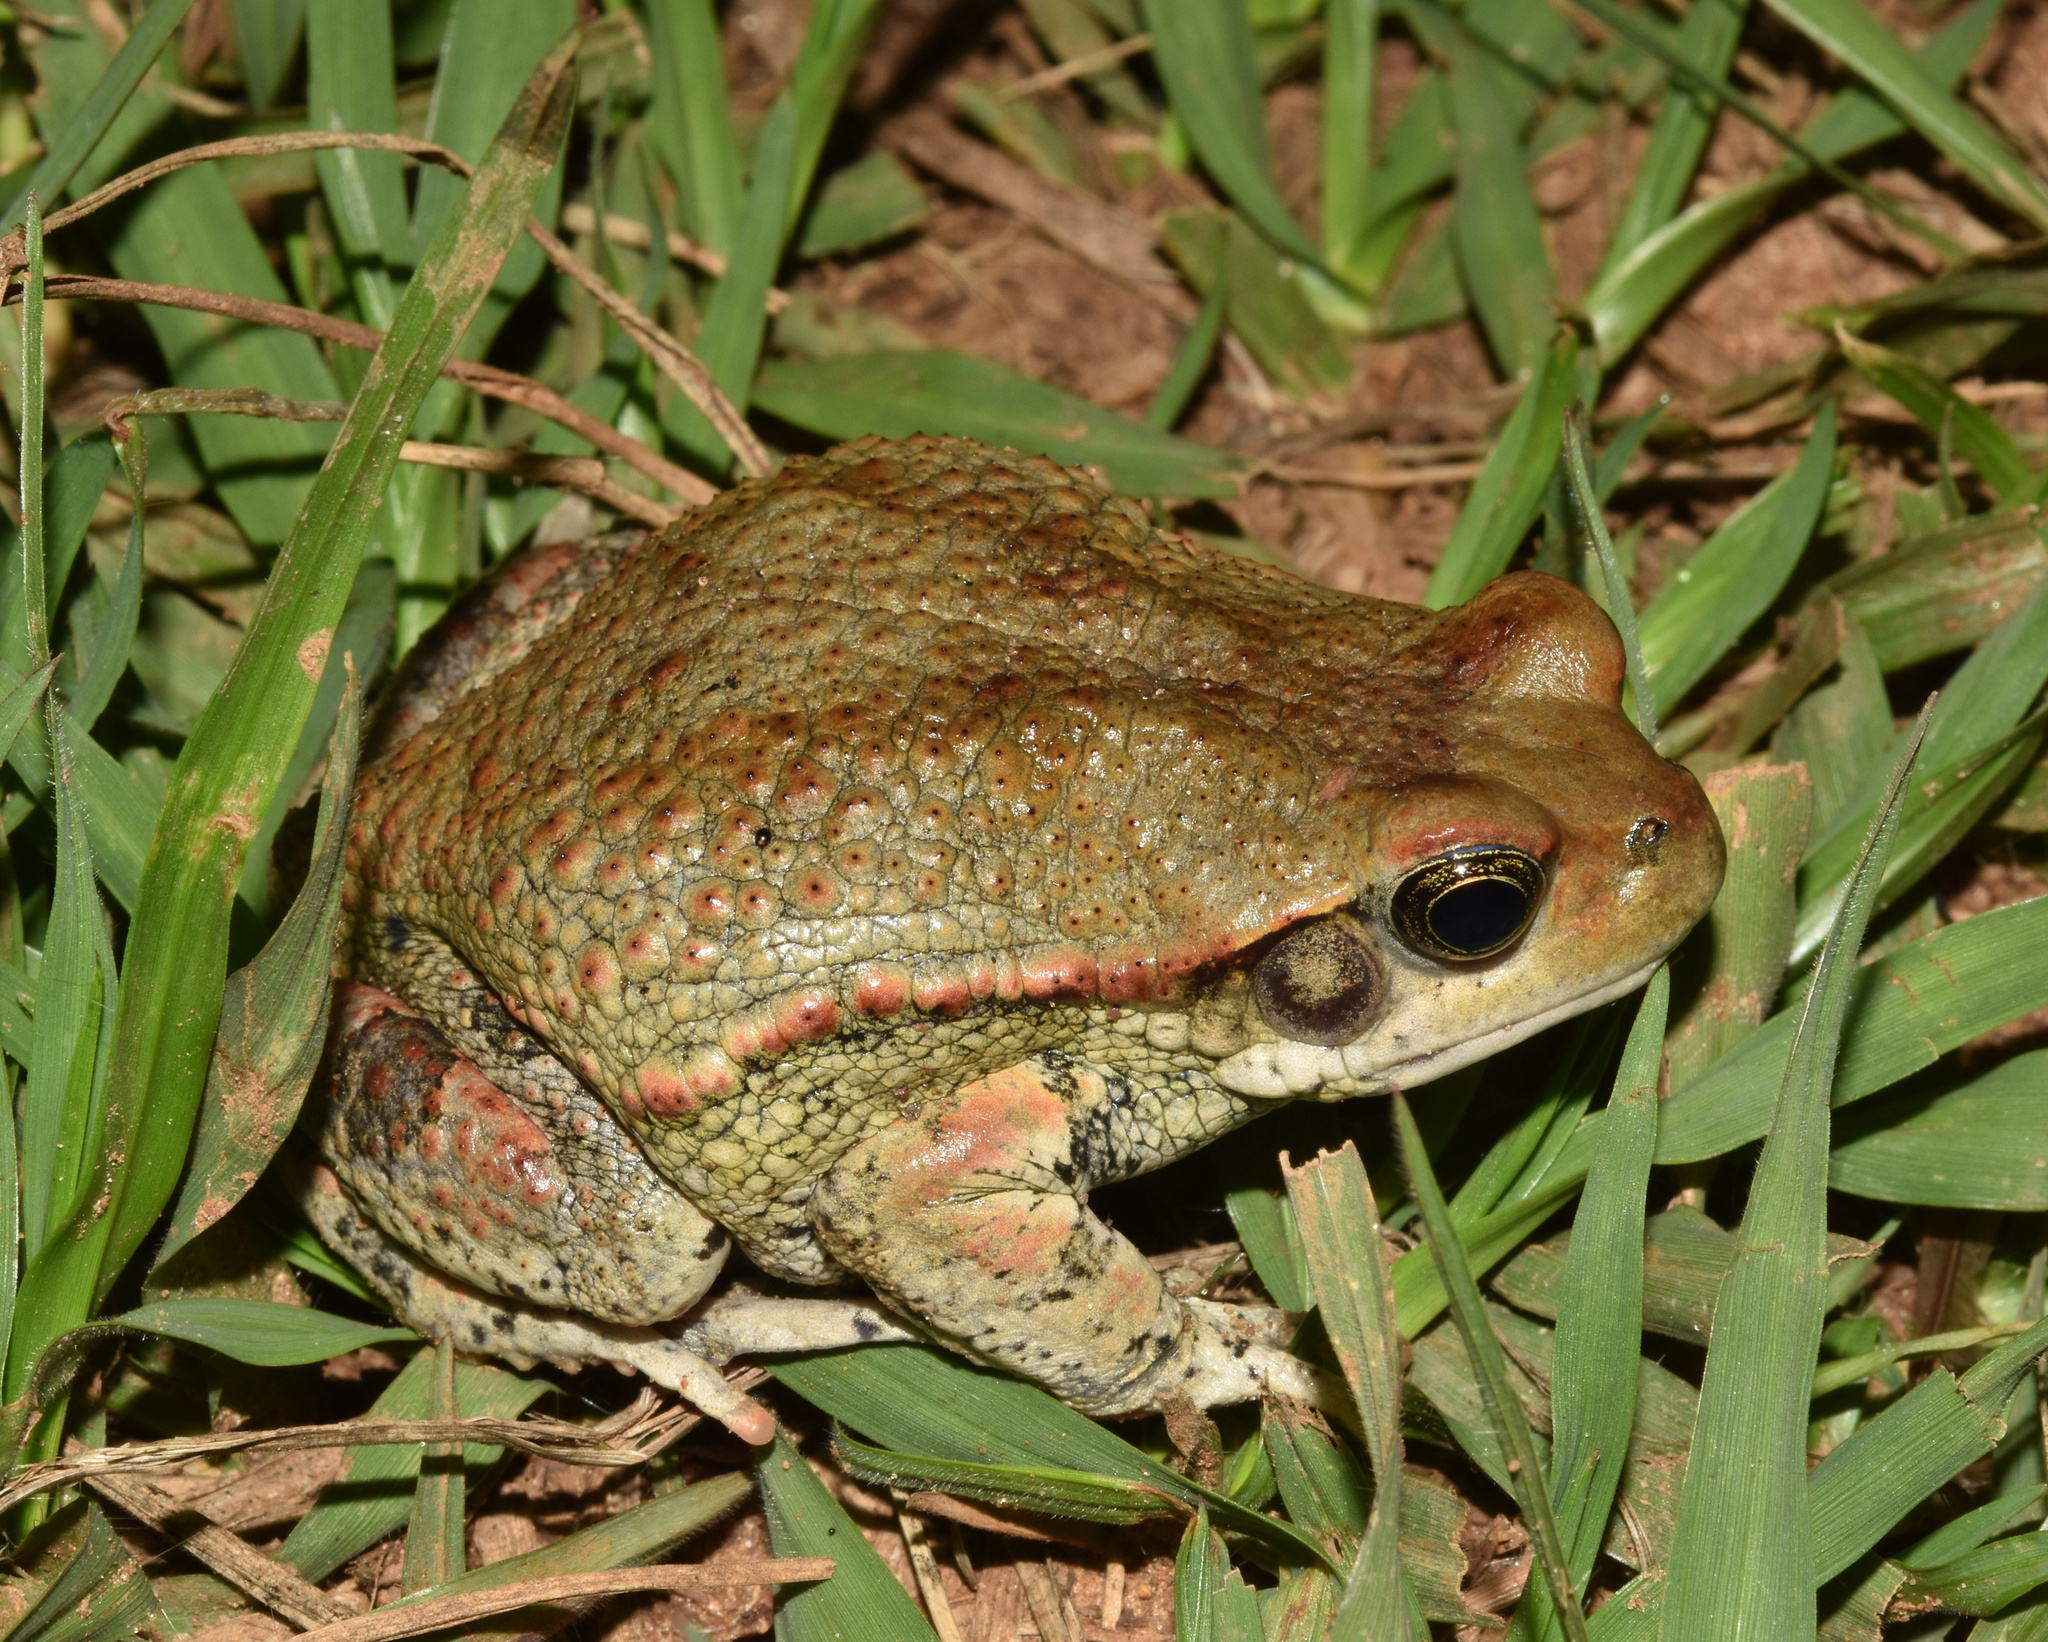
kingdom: Animalia
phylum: Chordata
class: Amphibia
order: Anura
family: Bufonidae
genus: Schismaderma
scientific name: Schismaderma carens
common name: African split-skin toad
